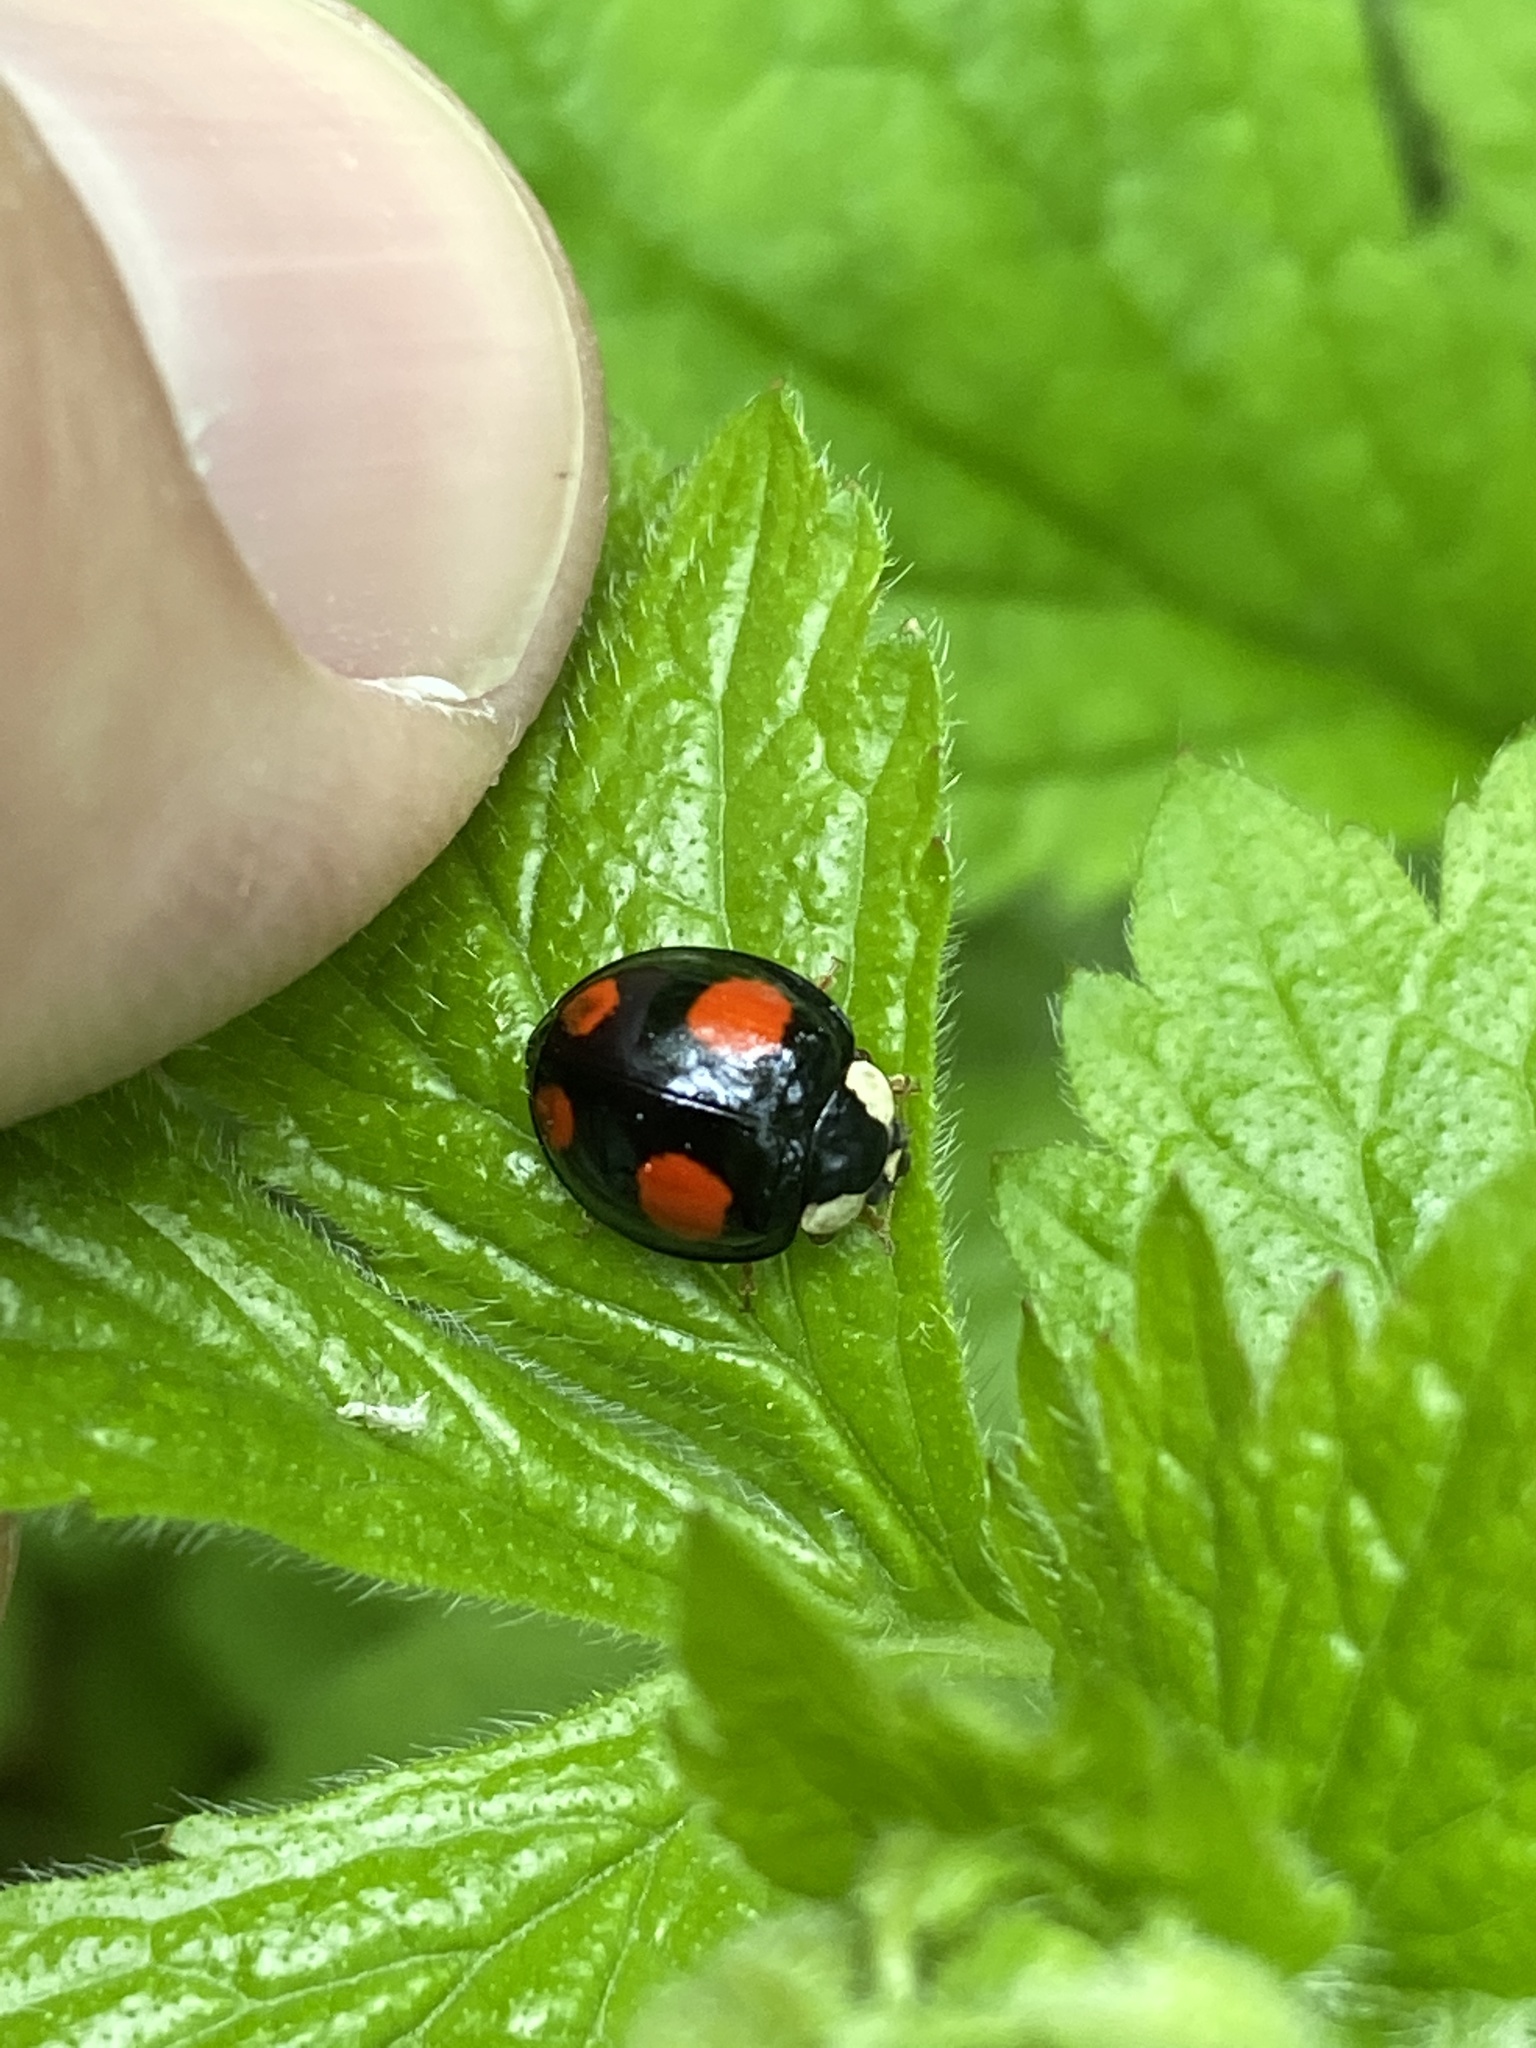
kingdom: Animalia
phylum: Arthropoda
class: Insecta
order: Coleoptera
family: Coccinellidae
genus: Harmonia
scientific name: Harmonia axyridis
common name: Harlequin ladybird
